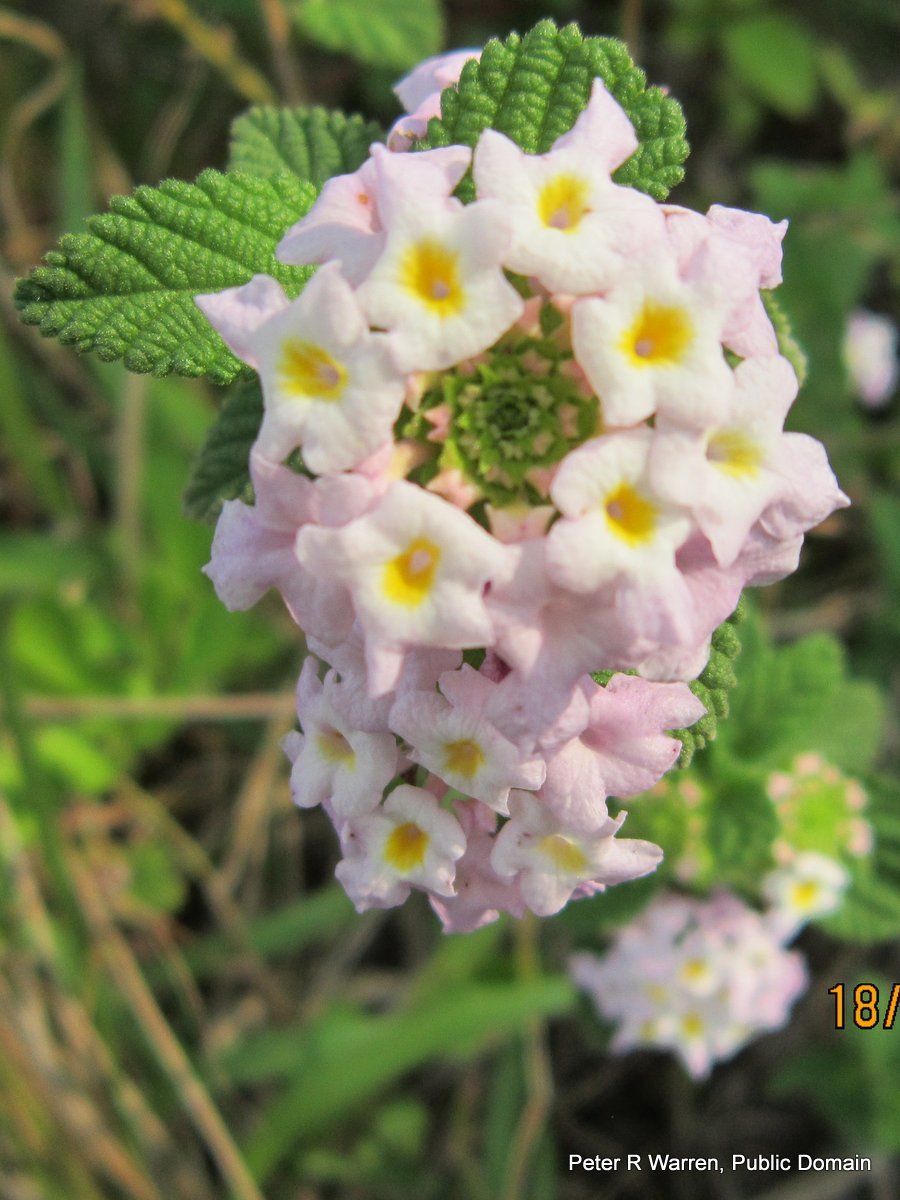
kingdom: Plantae
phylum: Tracheophyta
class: Magnoliopsida
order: Lamiales
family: Verbenaceae
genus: Lantana
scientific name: Lantana rugosa
